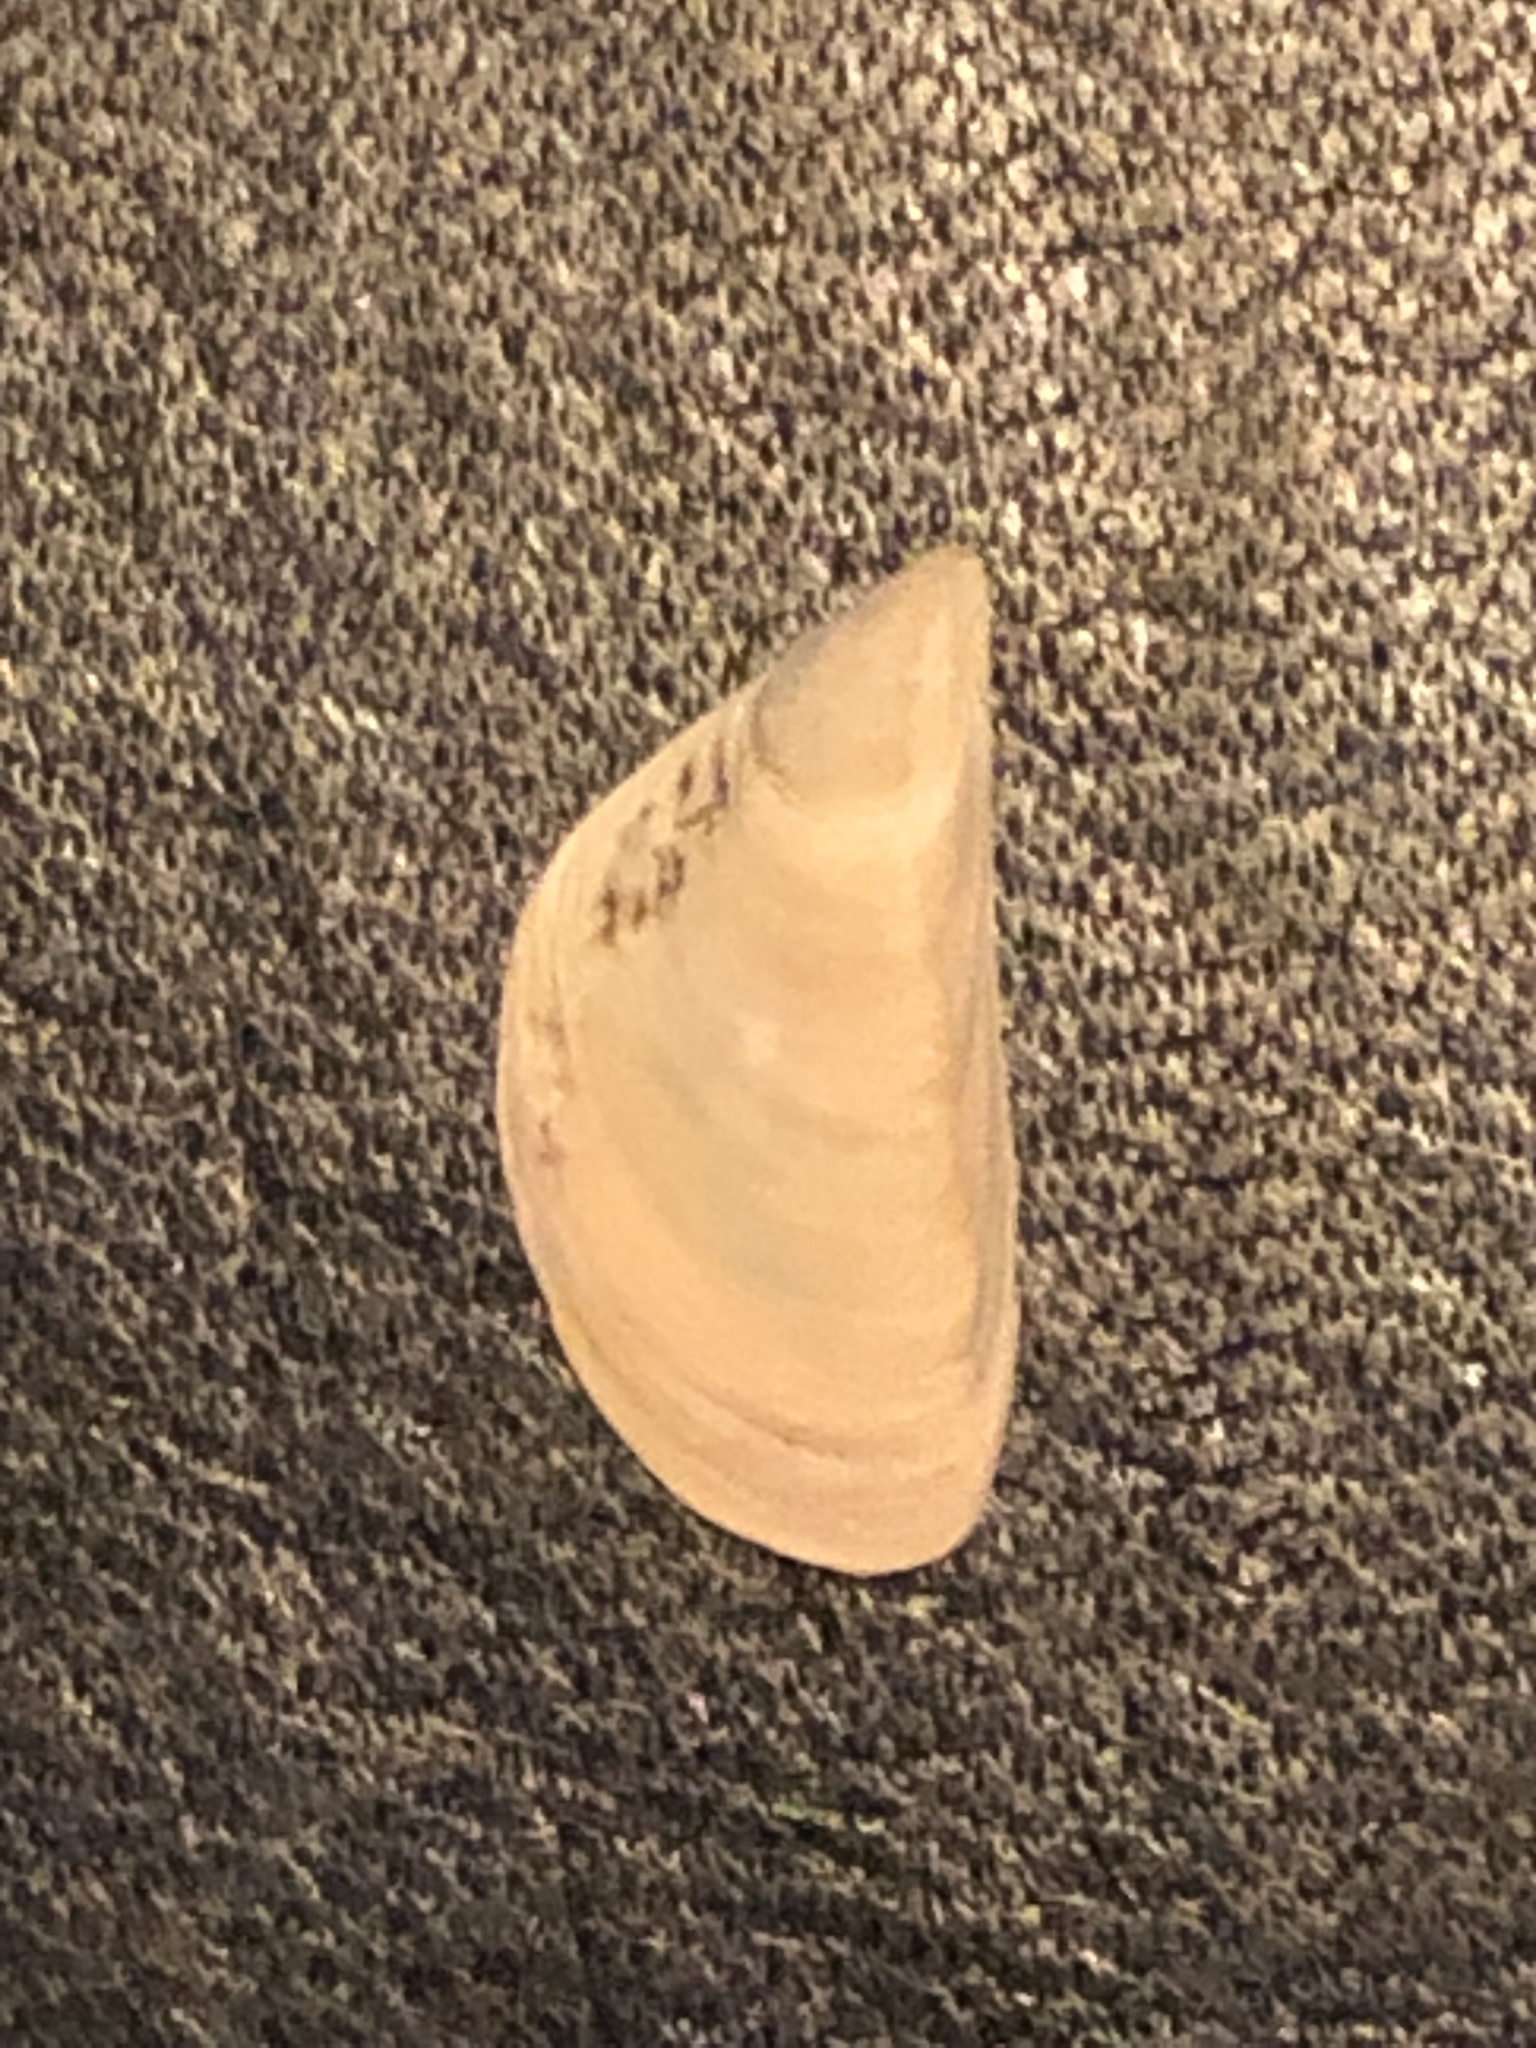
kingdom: Animalia
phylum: Mollusca
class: Bivalvia
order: Myida
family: Dreissenidae
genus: Dreissena
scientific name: Dreissena polymorpha
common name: Zebra mussel
